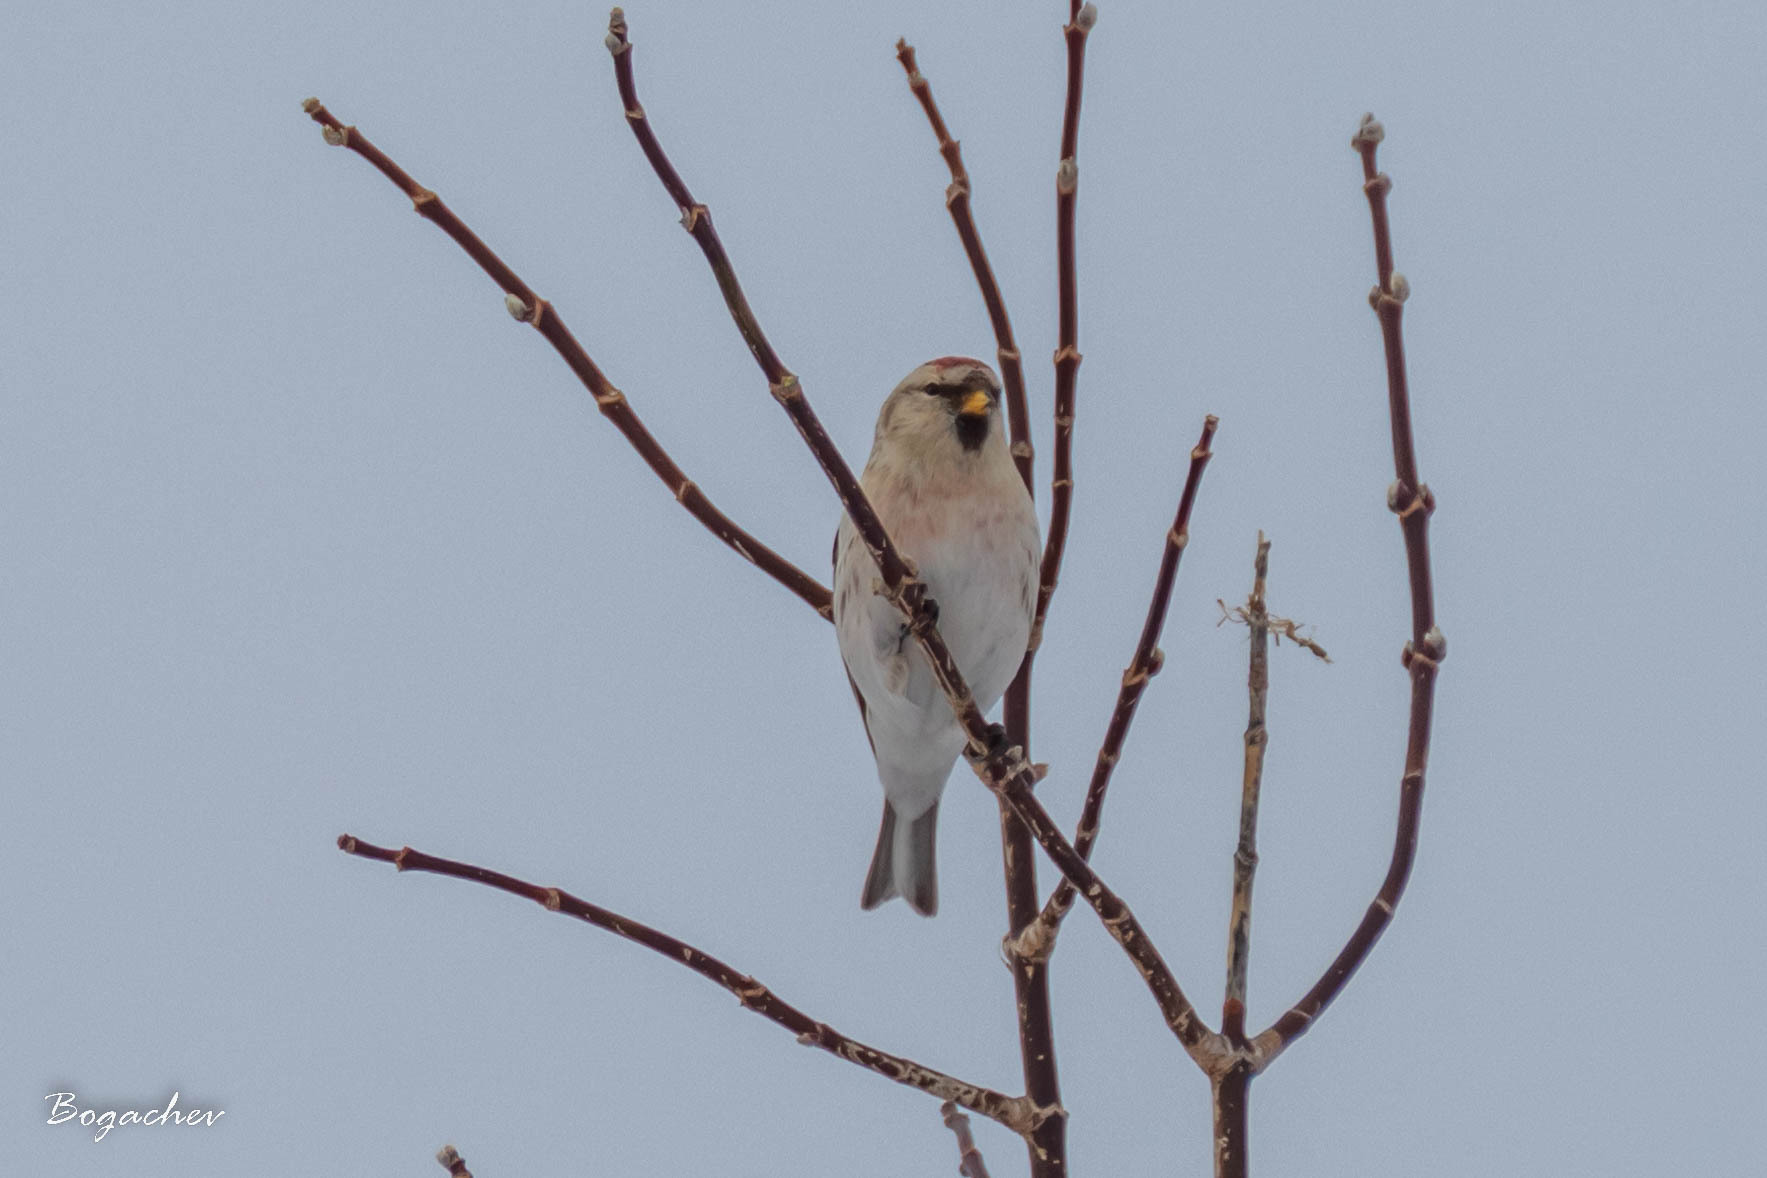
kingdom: Animalia
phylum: Chordata
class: Aves
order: Passeriformes
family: Fringillidae
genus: Acanthis
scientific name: Acanthis hornemanni
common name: Arctic redpoll
